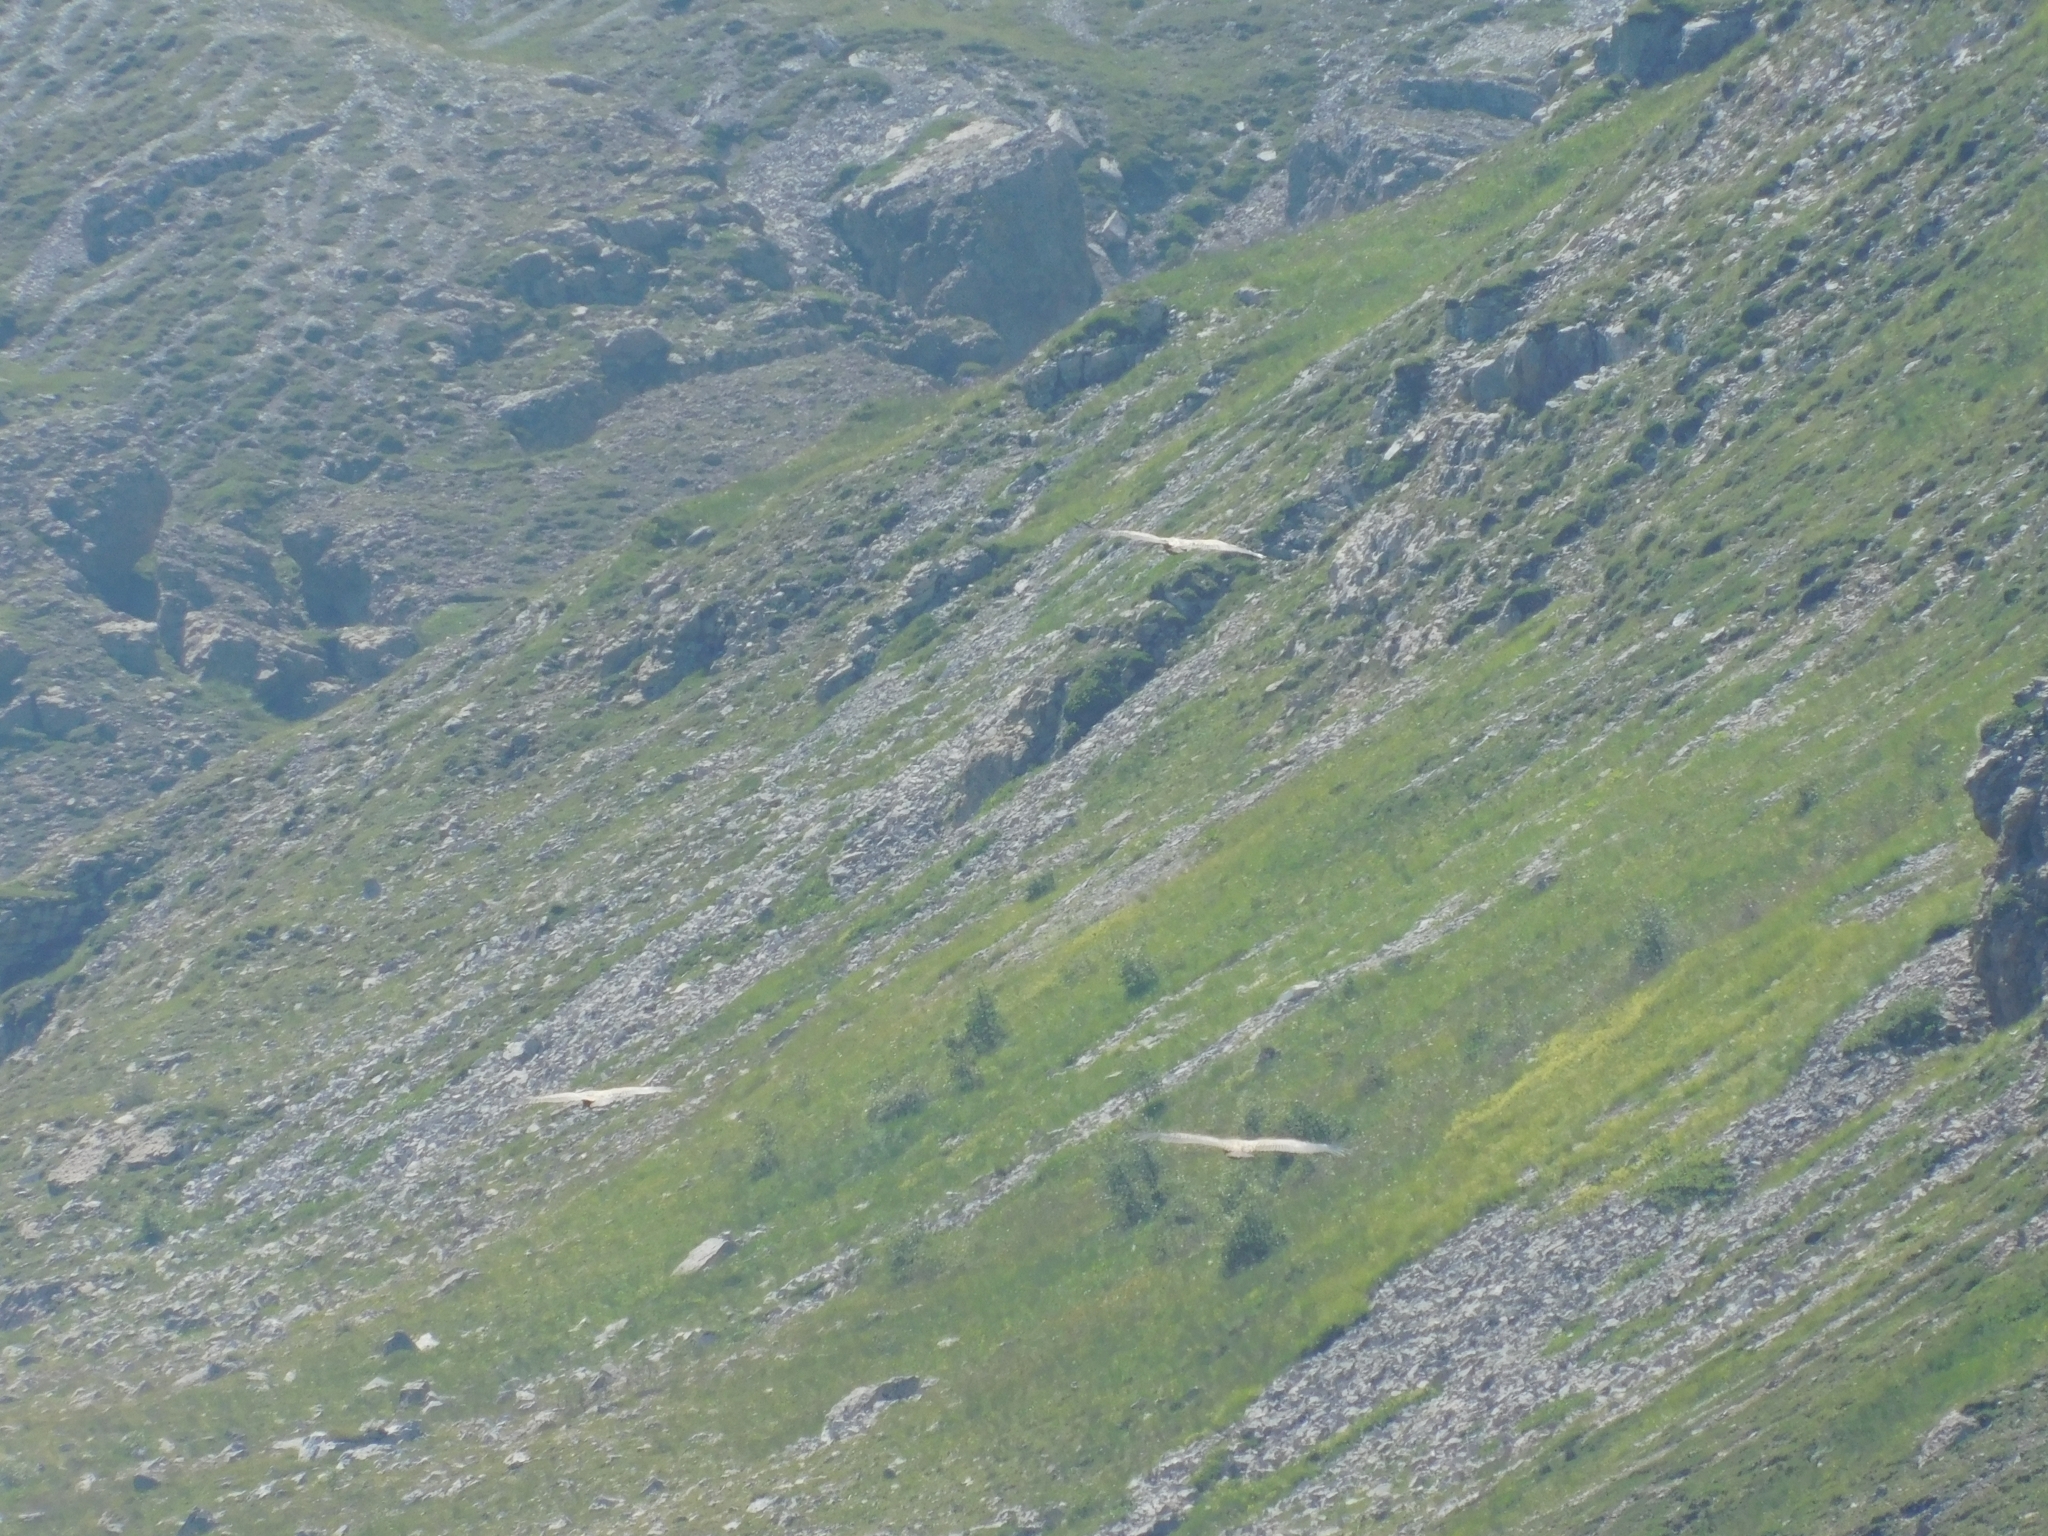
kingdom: Animalia
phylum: Chordata
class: Aves
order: Accipitriformes
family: Accipitridae
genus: Gyps
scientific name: Gyps fulvus
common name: Griffon vulture
